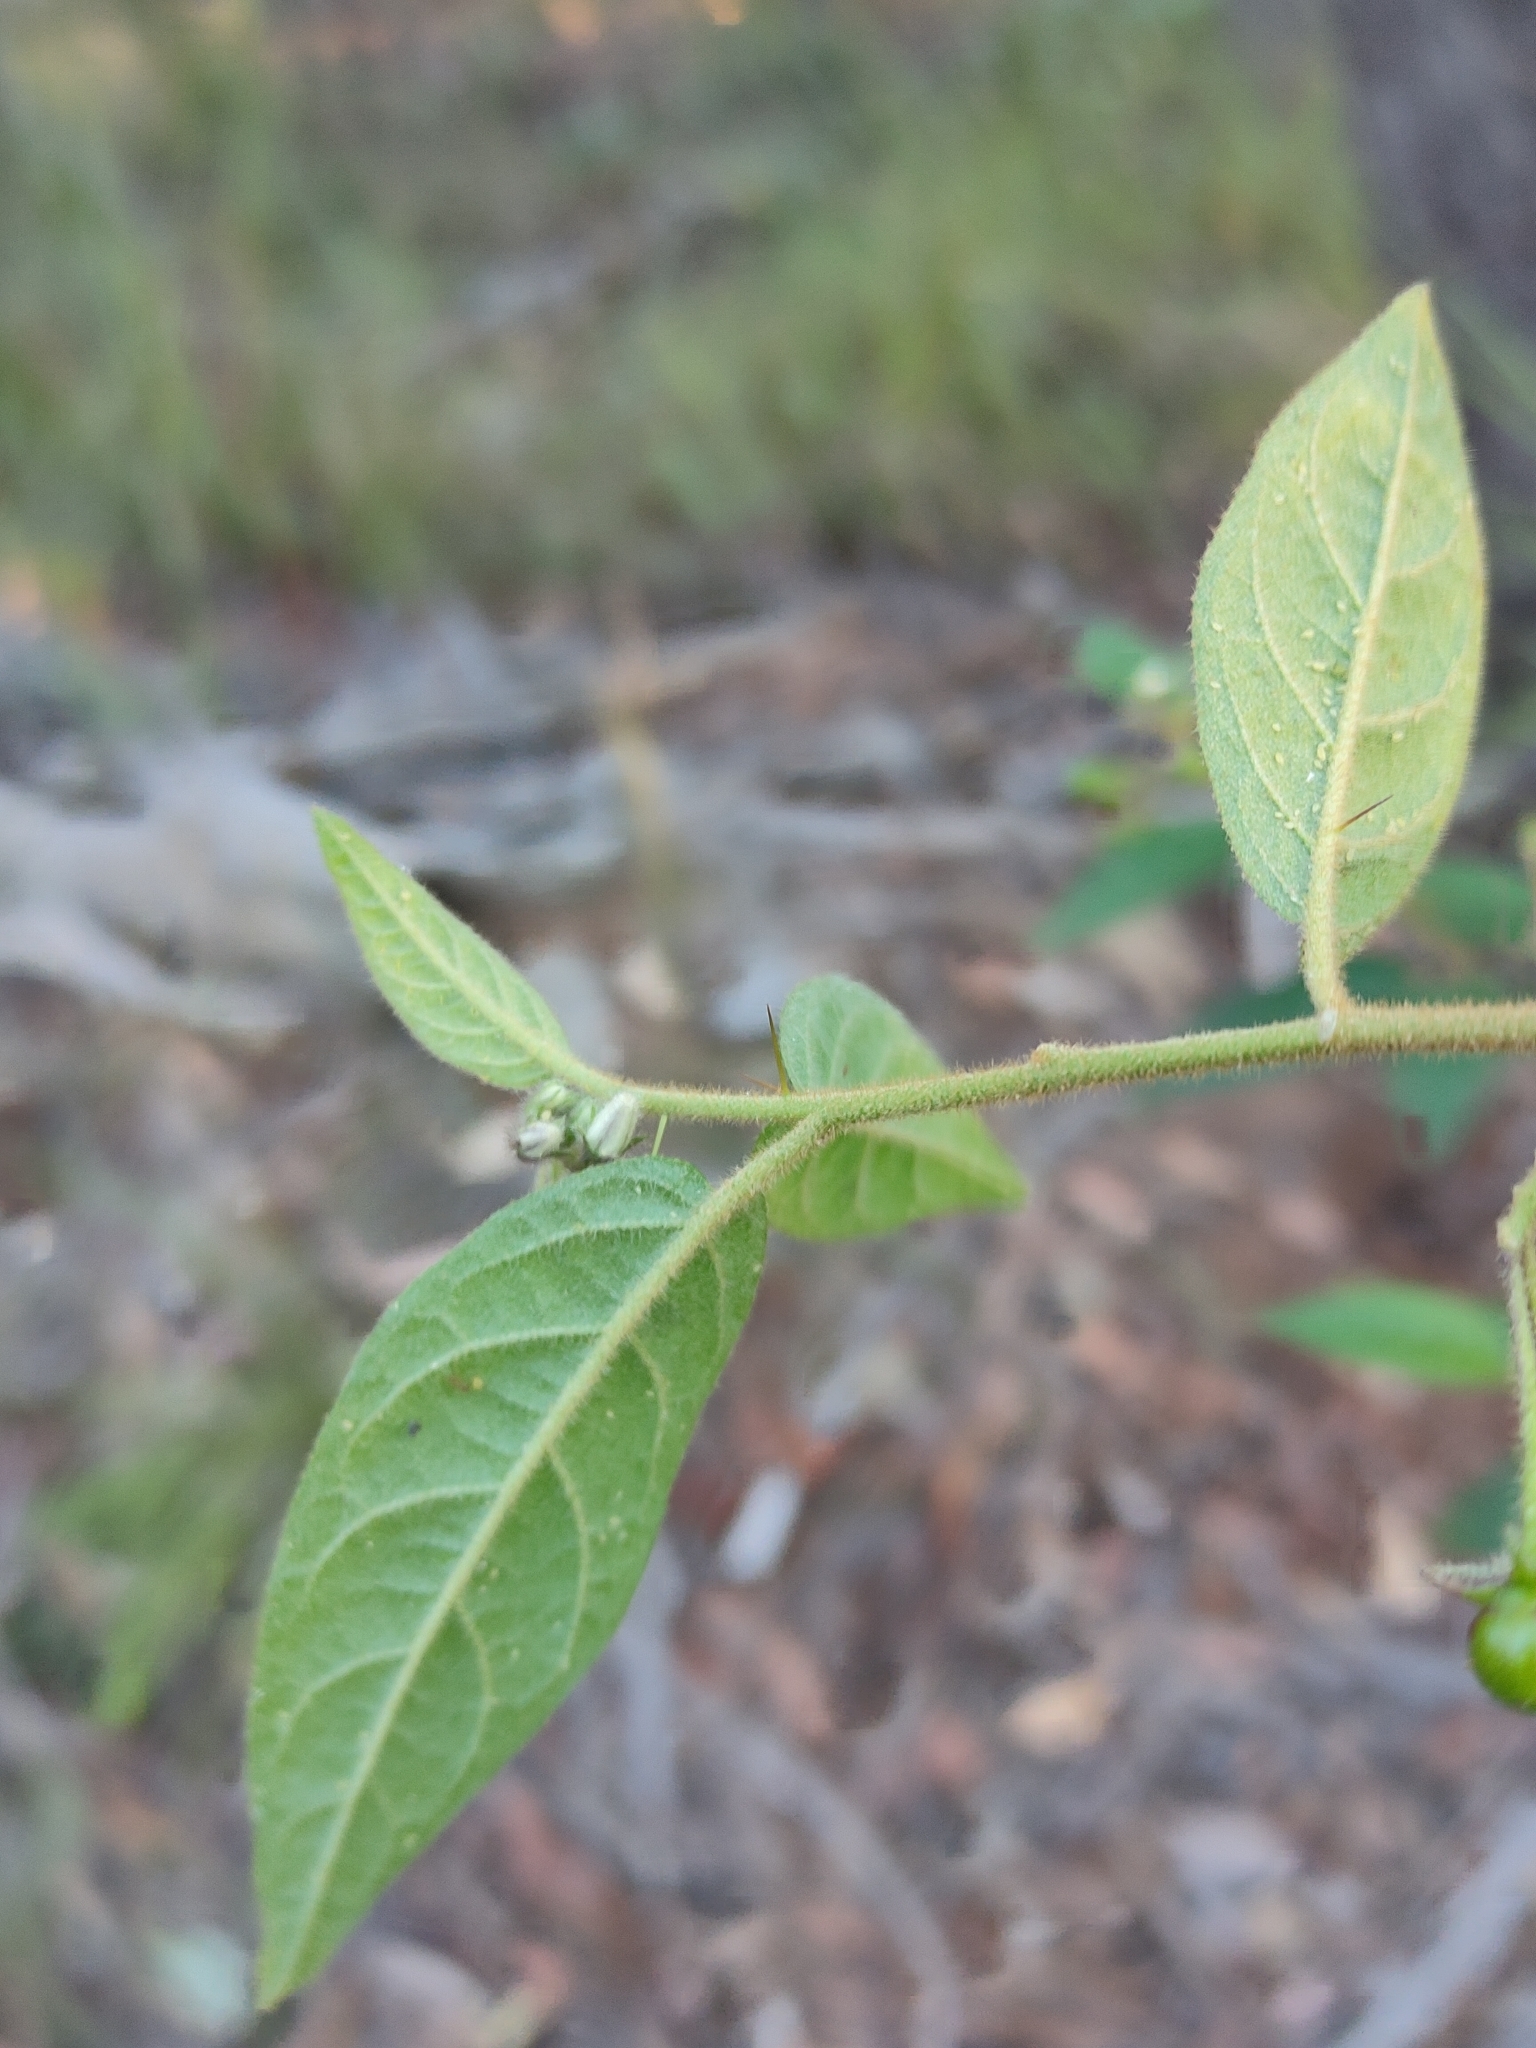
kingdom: Plantae
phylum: Tracheophyta
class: Magnoliopsida
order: Solanales
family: Solanaceae
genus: Solanum
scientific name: Solanum stelligerum
